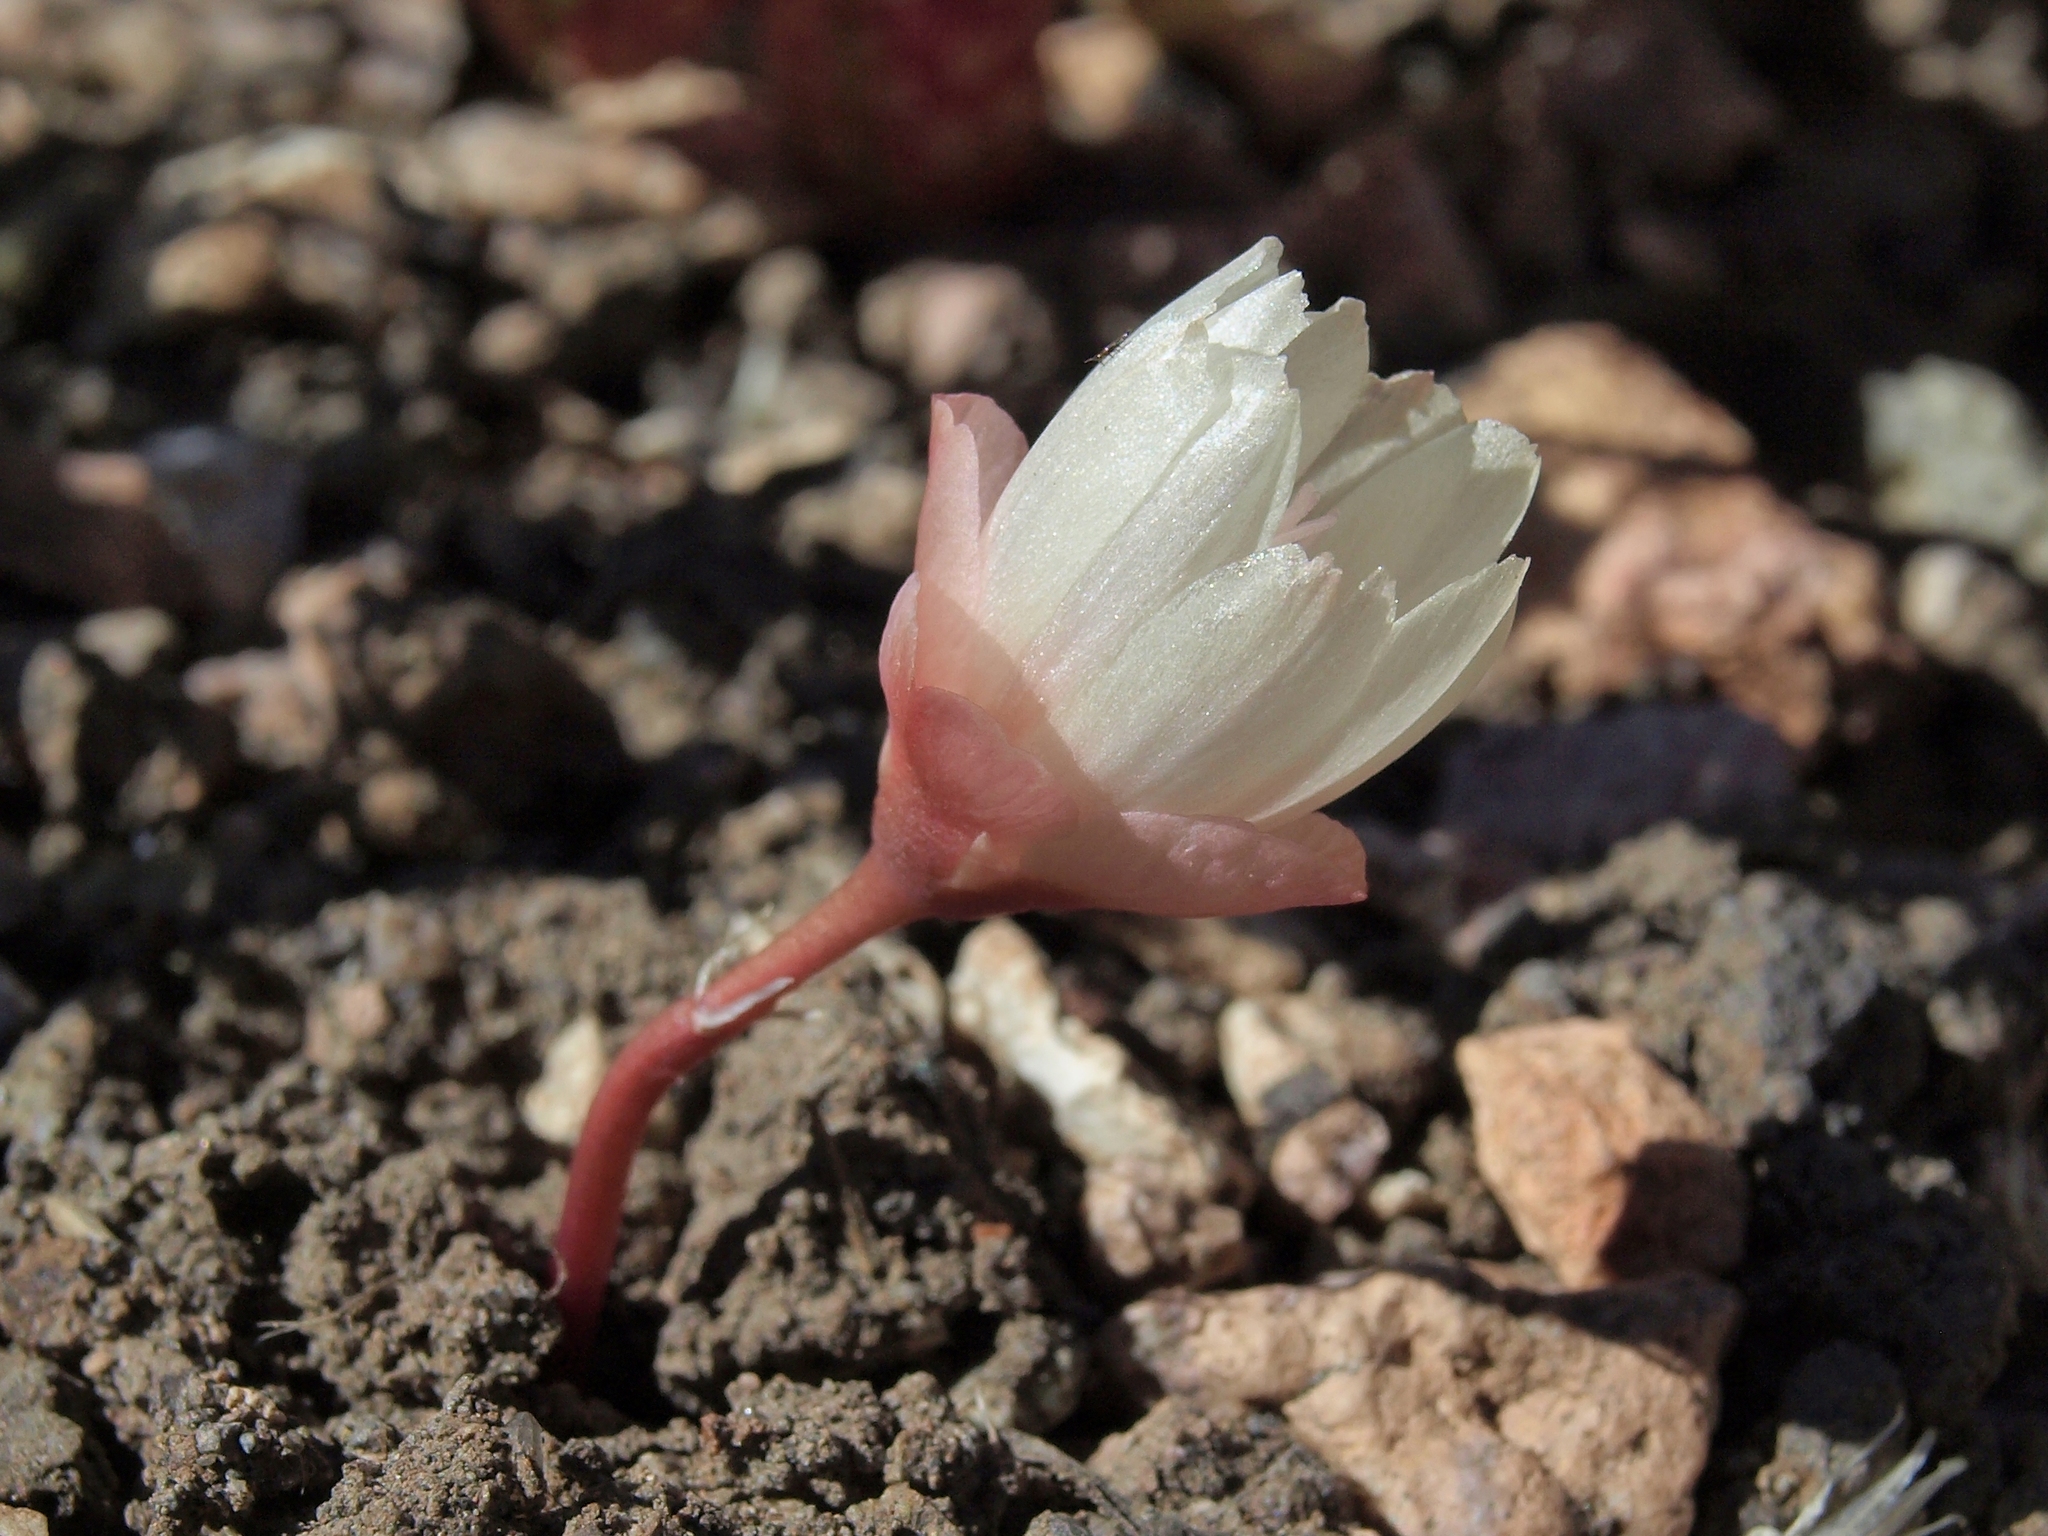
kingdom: Plantae
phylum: Tracheophyta
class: Magnoliopsida
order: Caryophyllales
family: Montiaceae
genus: Lewisia
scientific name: Lewisia rediviva
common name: Bitter-root
